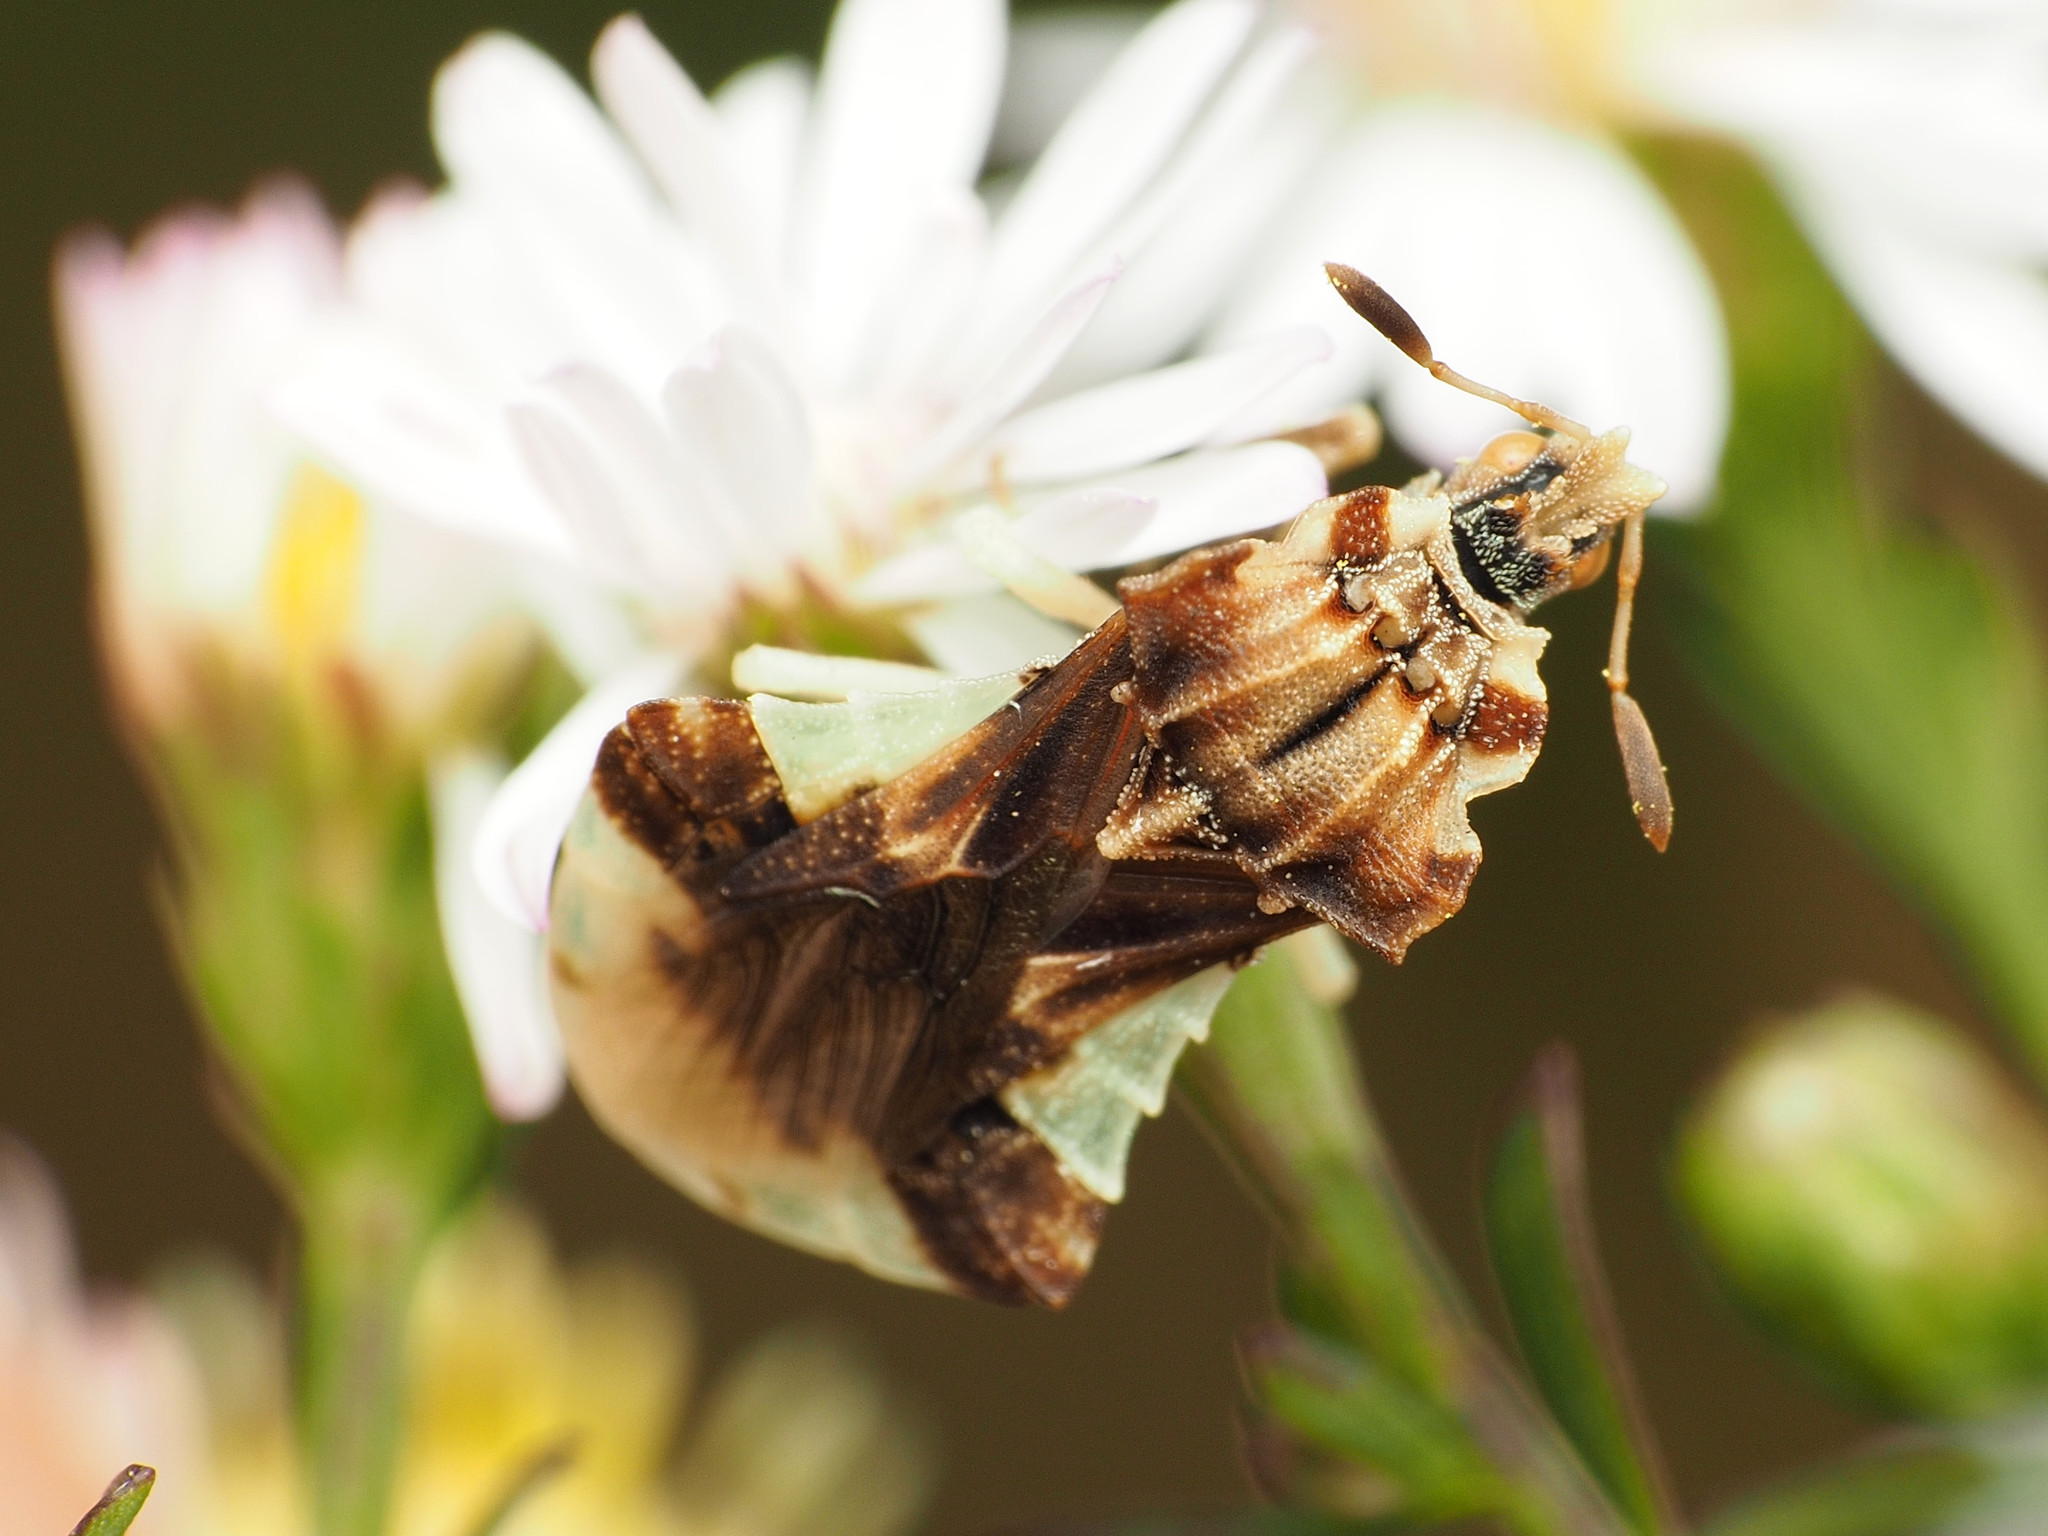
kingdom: Animalia
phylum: Arthropoda
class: Insecta
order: Hemiptera
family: Reduviidae
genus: Phymata
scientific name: Phymata fasciata
